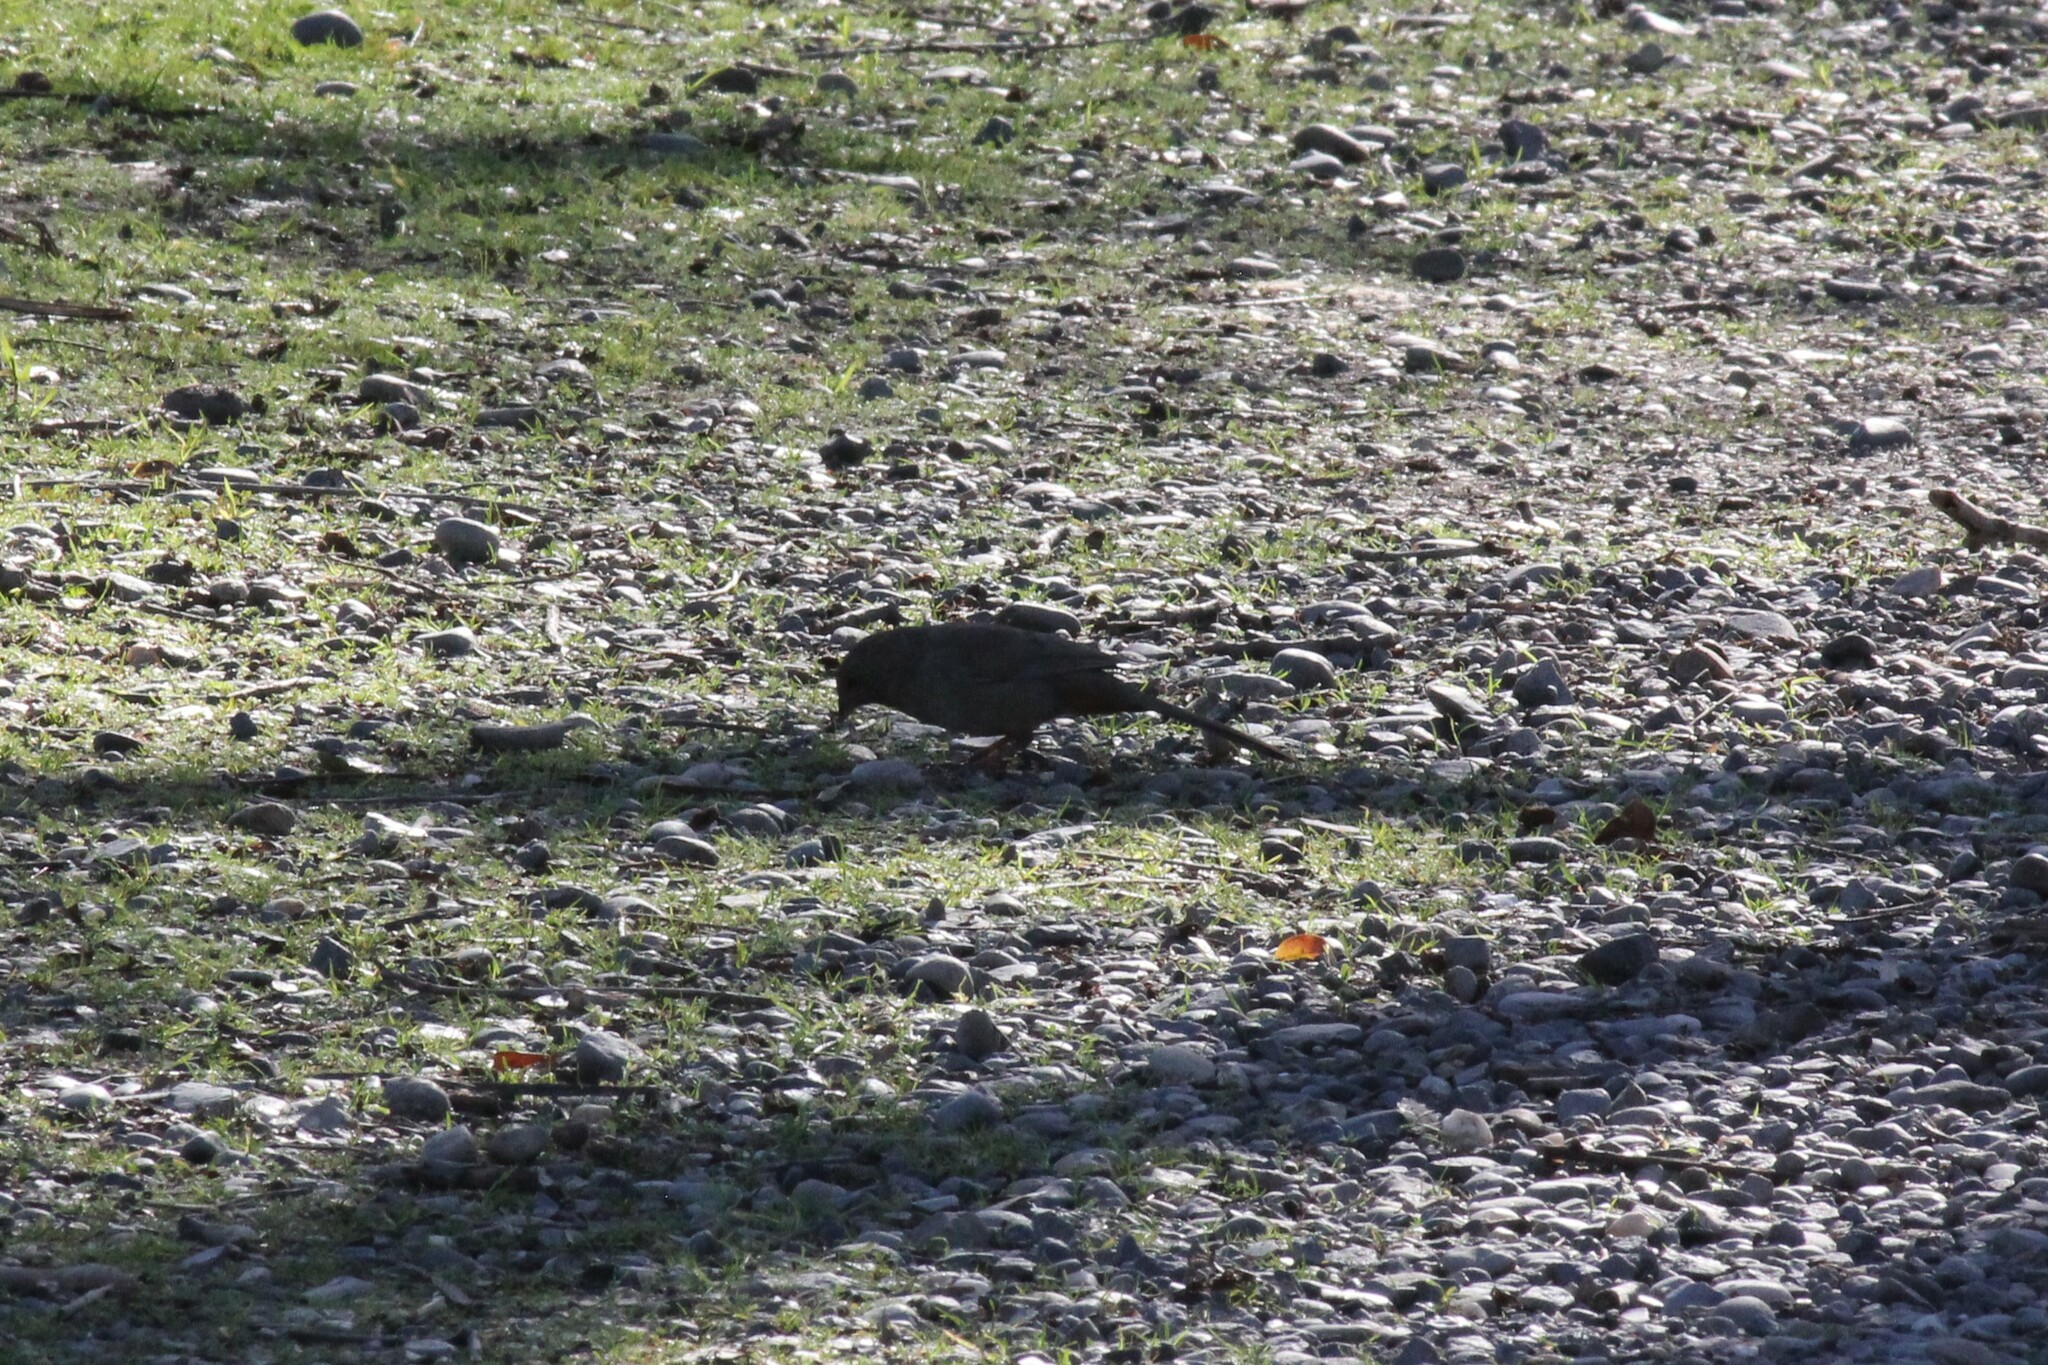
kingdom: Animalia
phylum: Chordata
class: Aves
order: Passeriformes
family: Passerellidae
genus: Melozone
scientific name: Melozone crissalis
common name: California towhee
